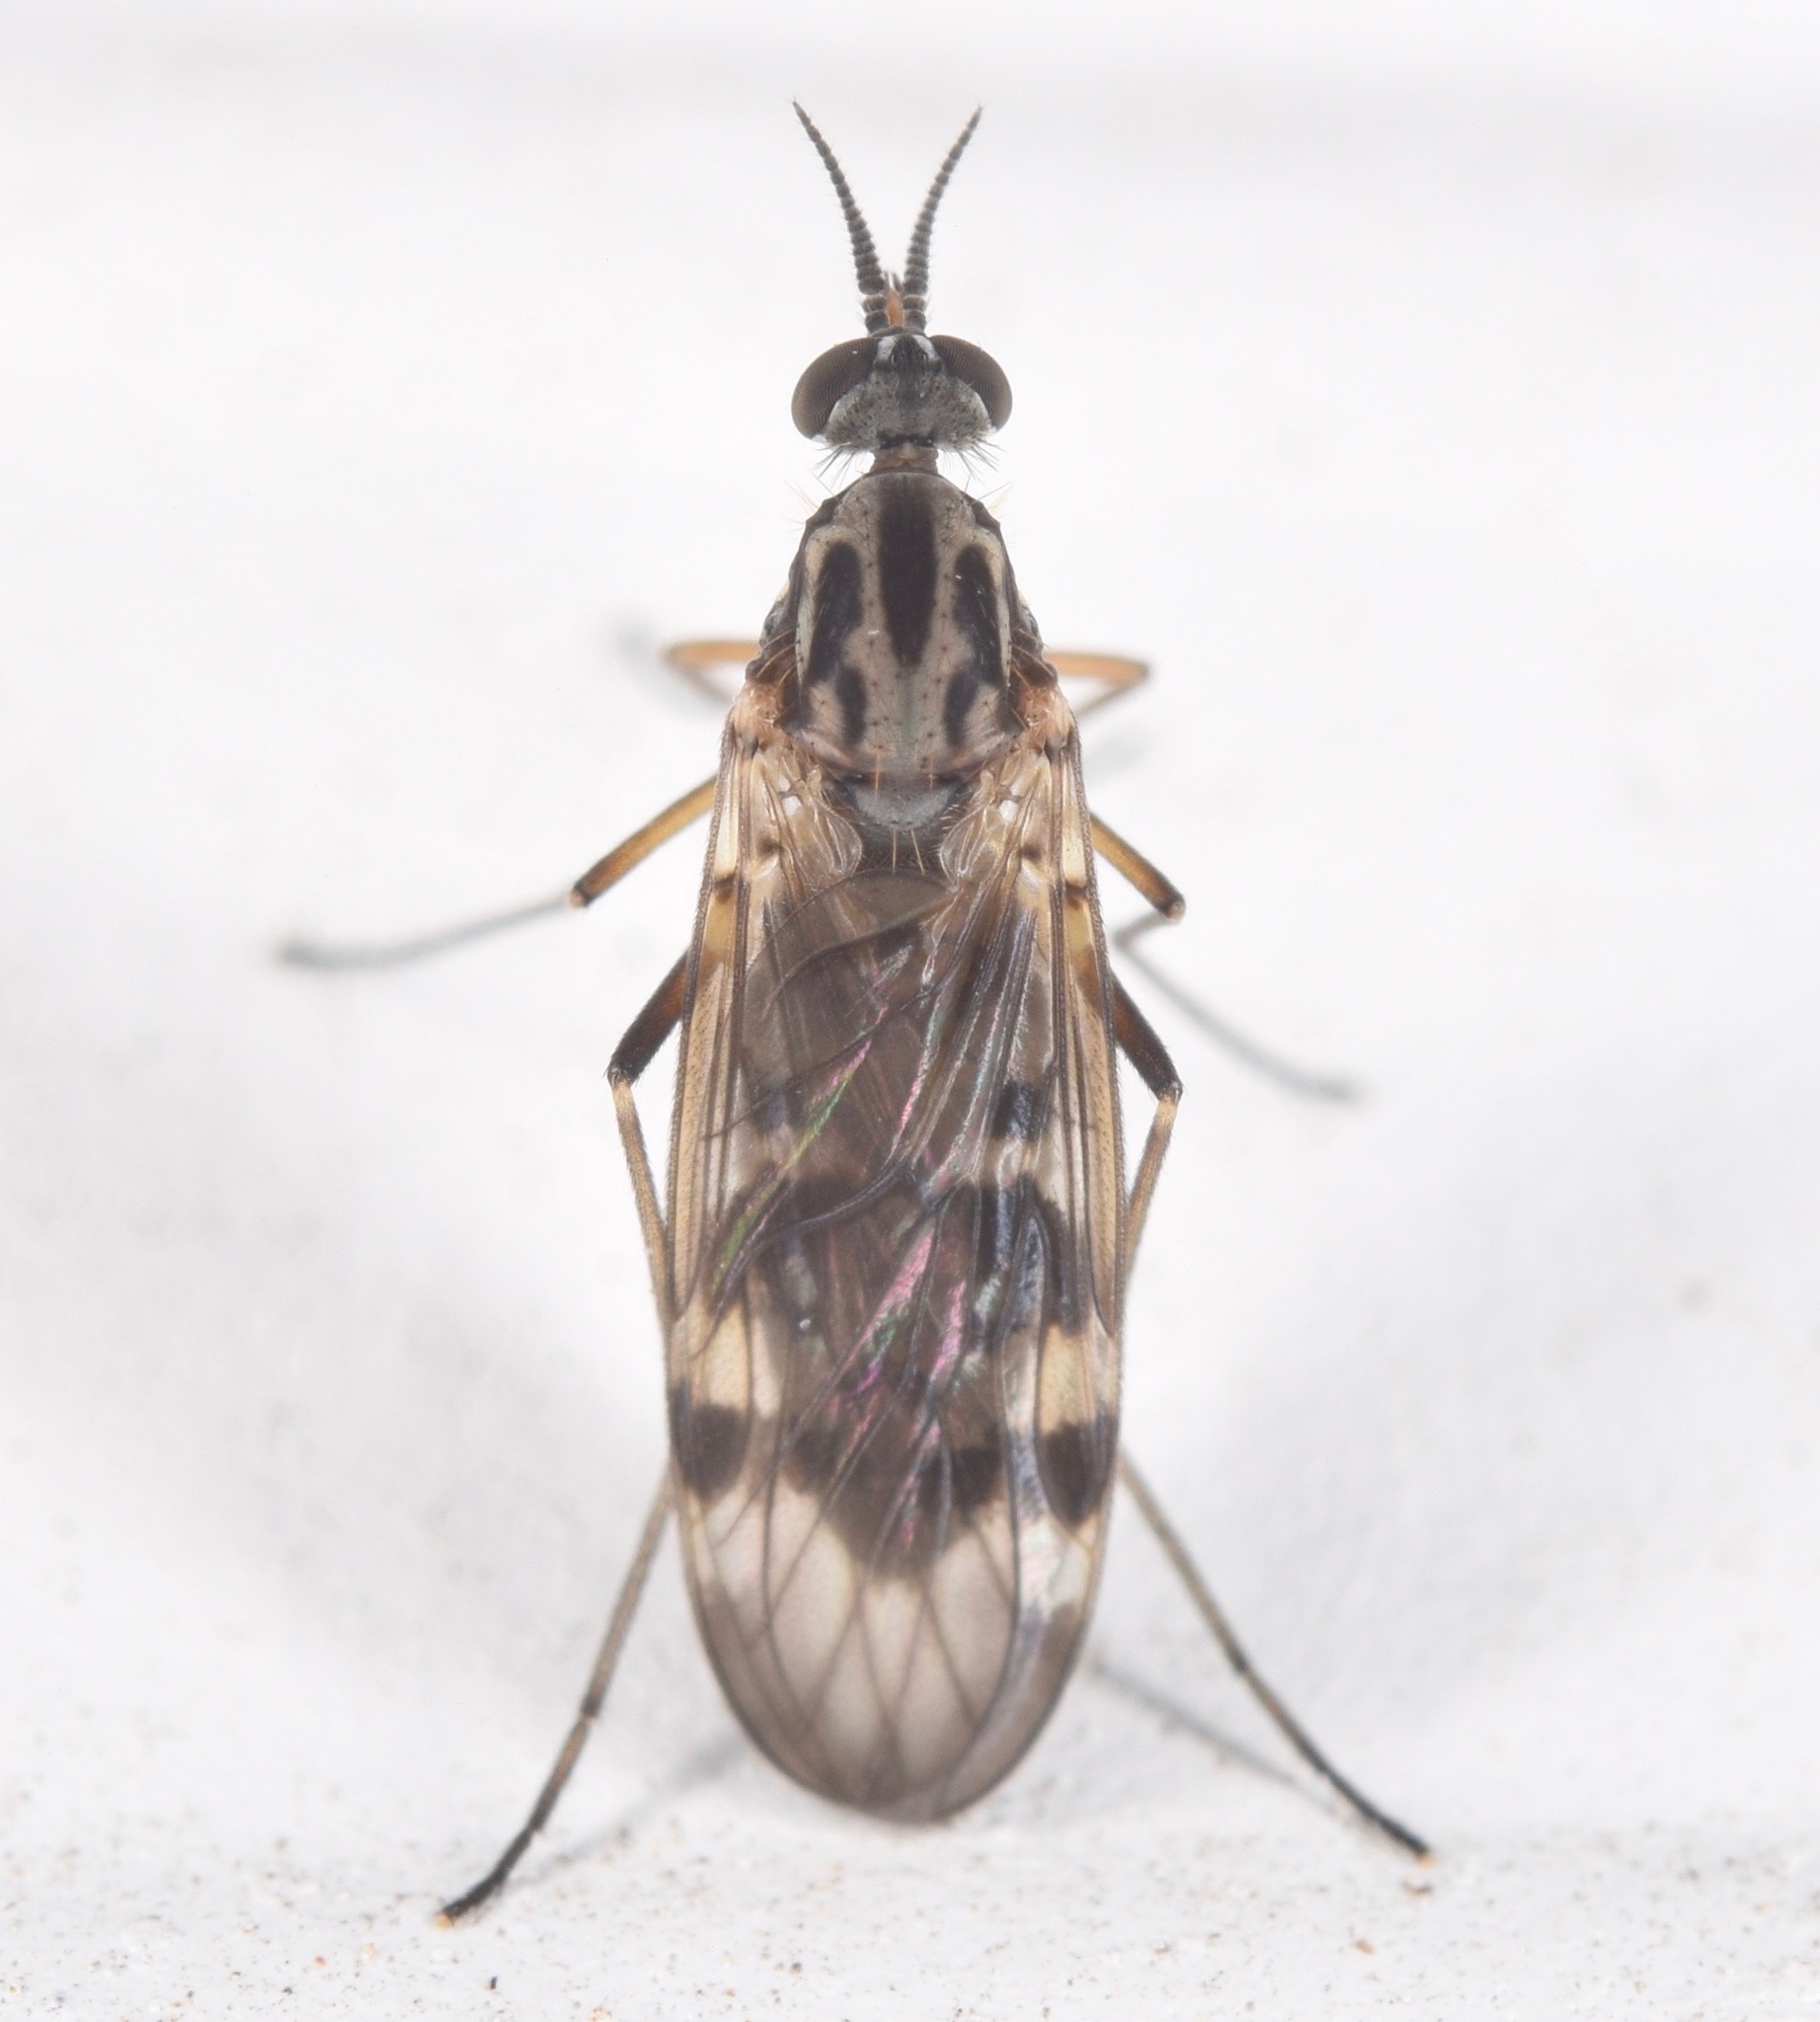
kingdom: Animalia
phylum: Arthropoda
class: Insecta
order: Diptera
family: Anisopodidae
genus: Sylvicola
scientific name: Sylvicola notialis
